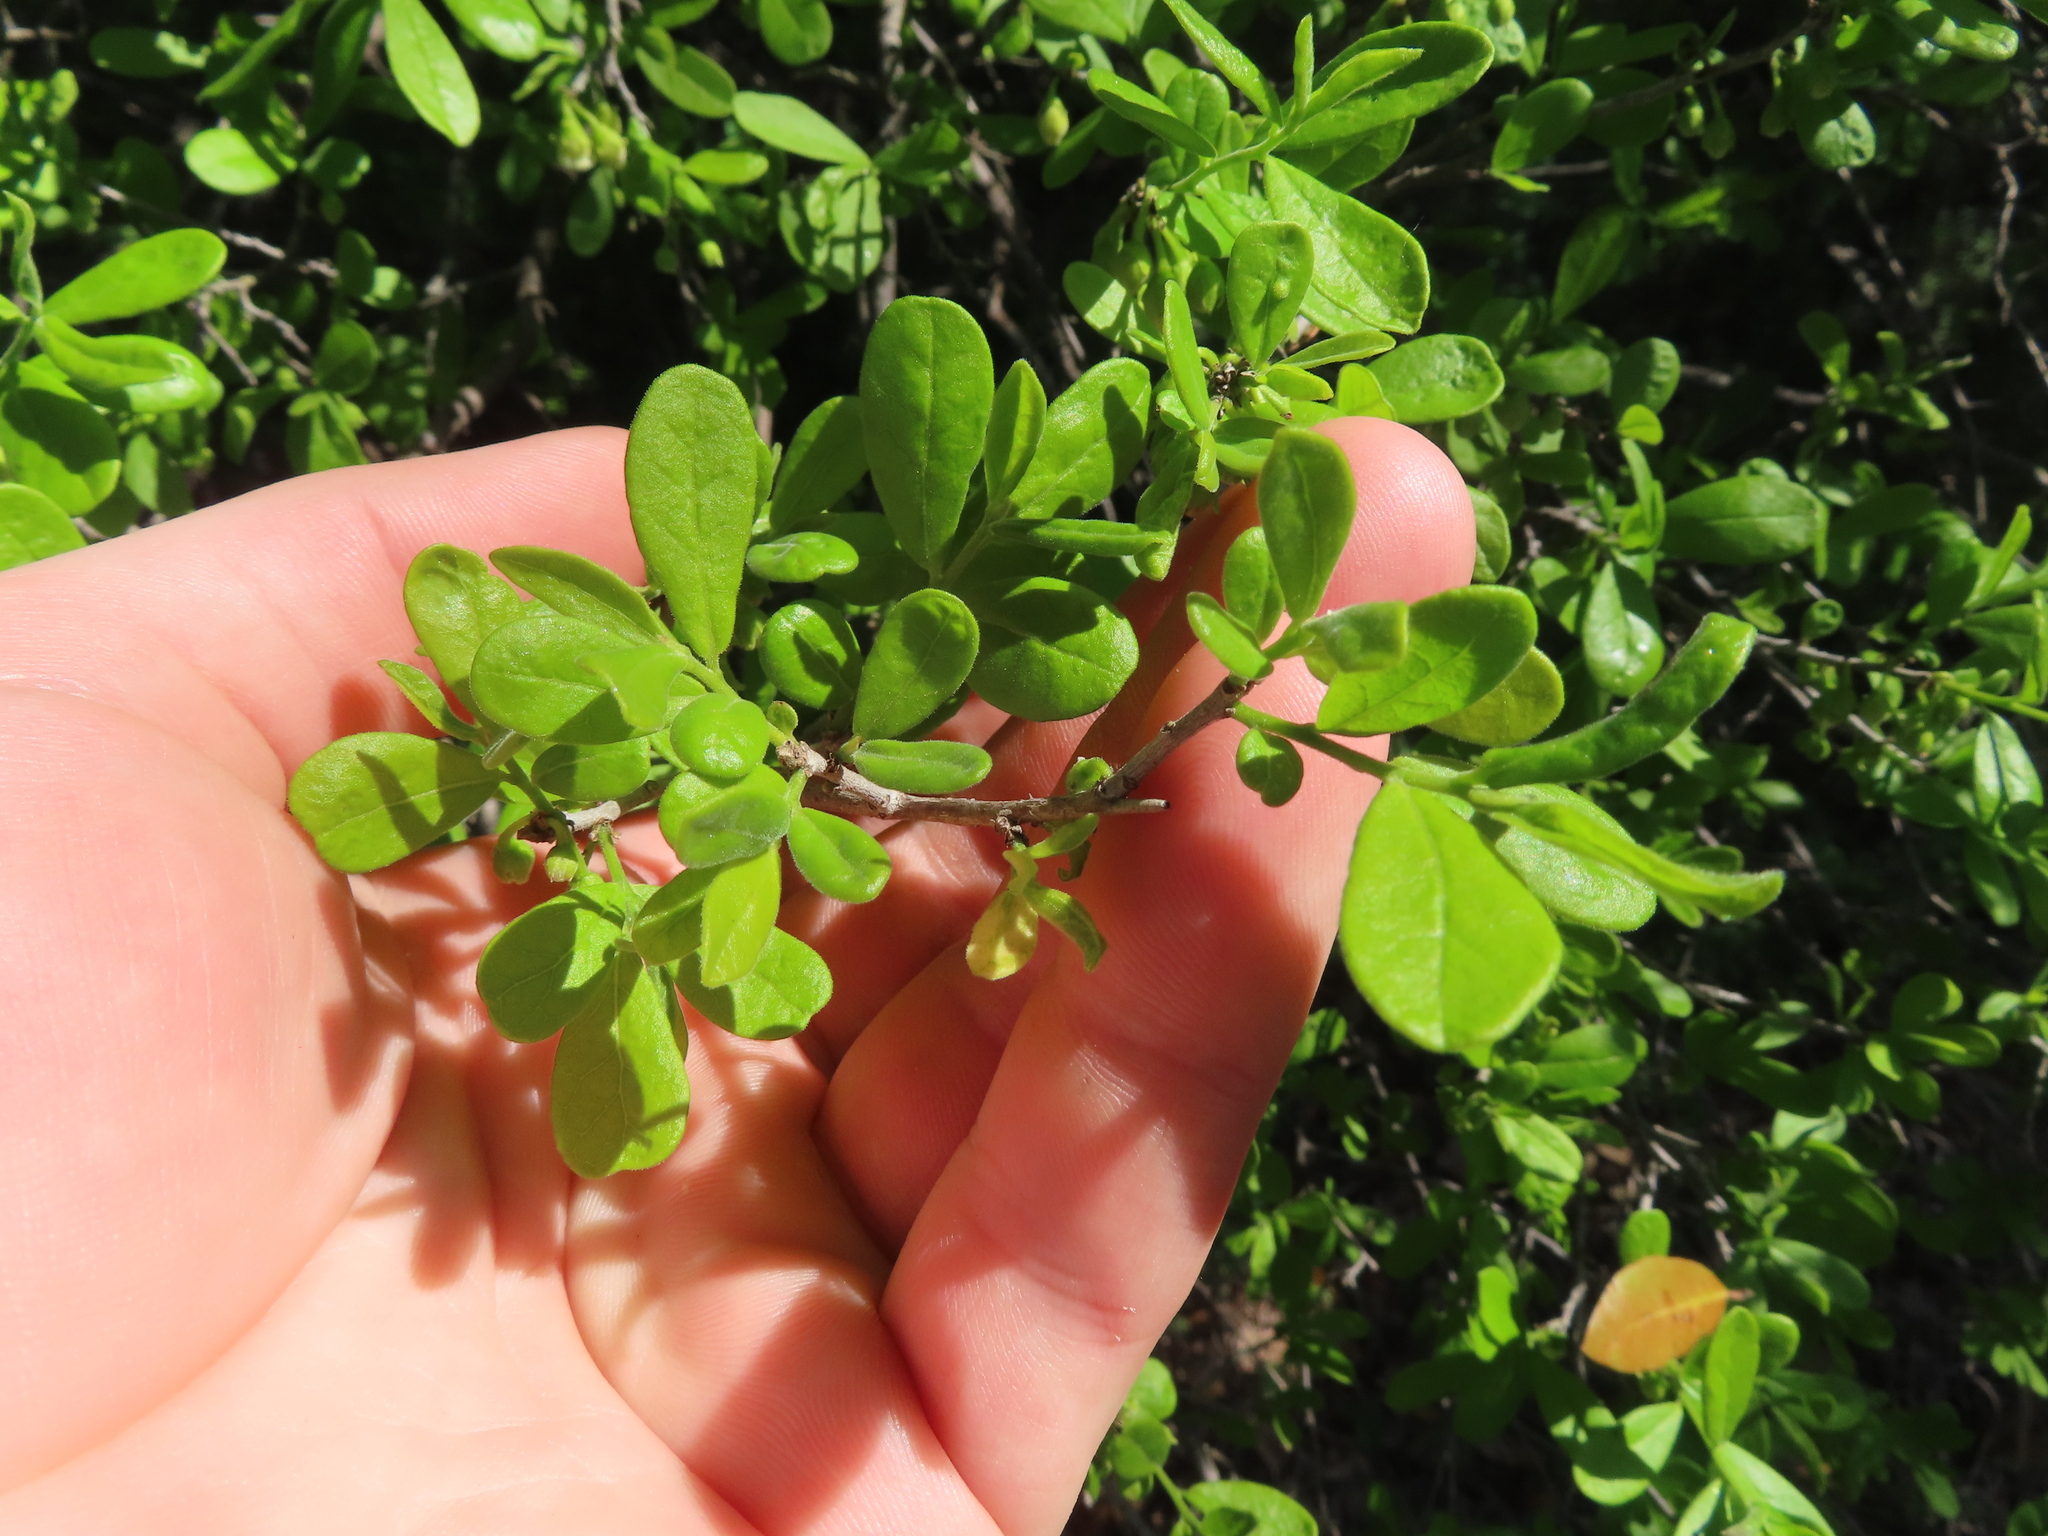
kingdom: Plantae
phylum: Tracheophyta
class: Magnoliopsida
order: Ericales
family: Ebenaceae
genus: Diospyros
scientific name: Diospyros texana
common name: Texas persimmon
